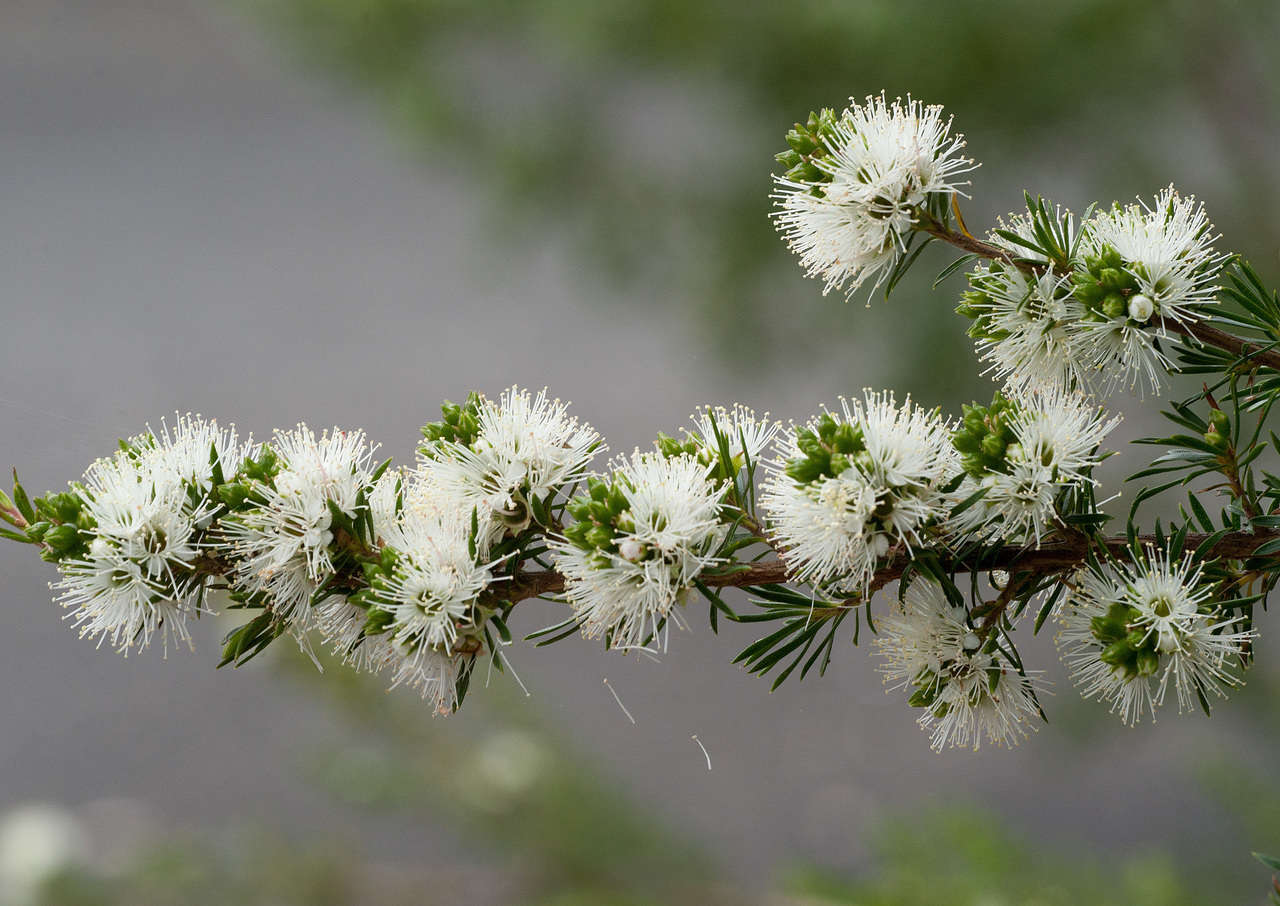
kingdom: Plantae
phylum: Tracheophyta
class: Magnoliopsida
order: Myrtales
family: Myrtaceae
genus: Kunzea
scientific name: Kunzea ambigua
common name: Tickbush
